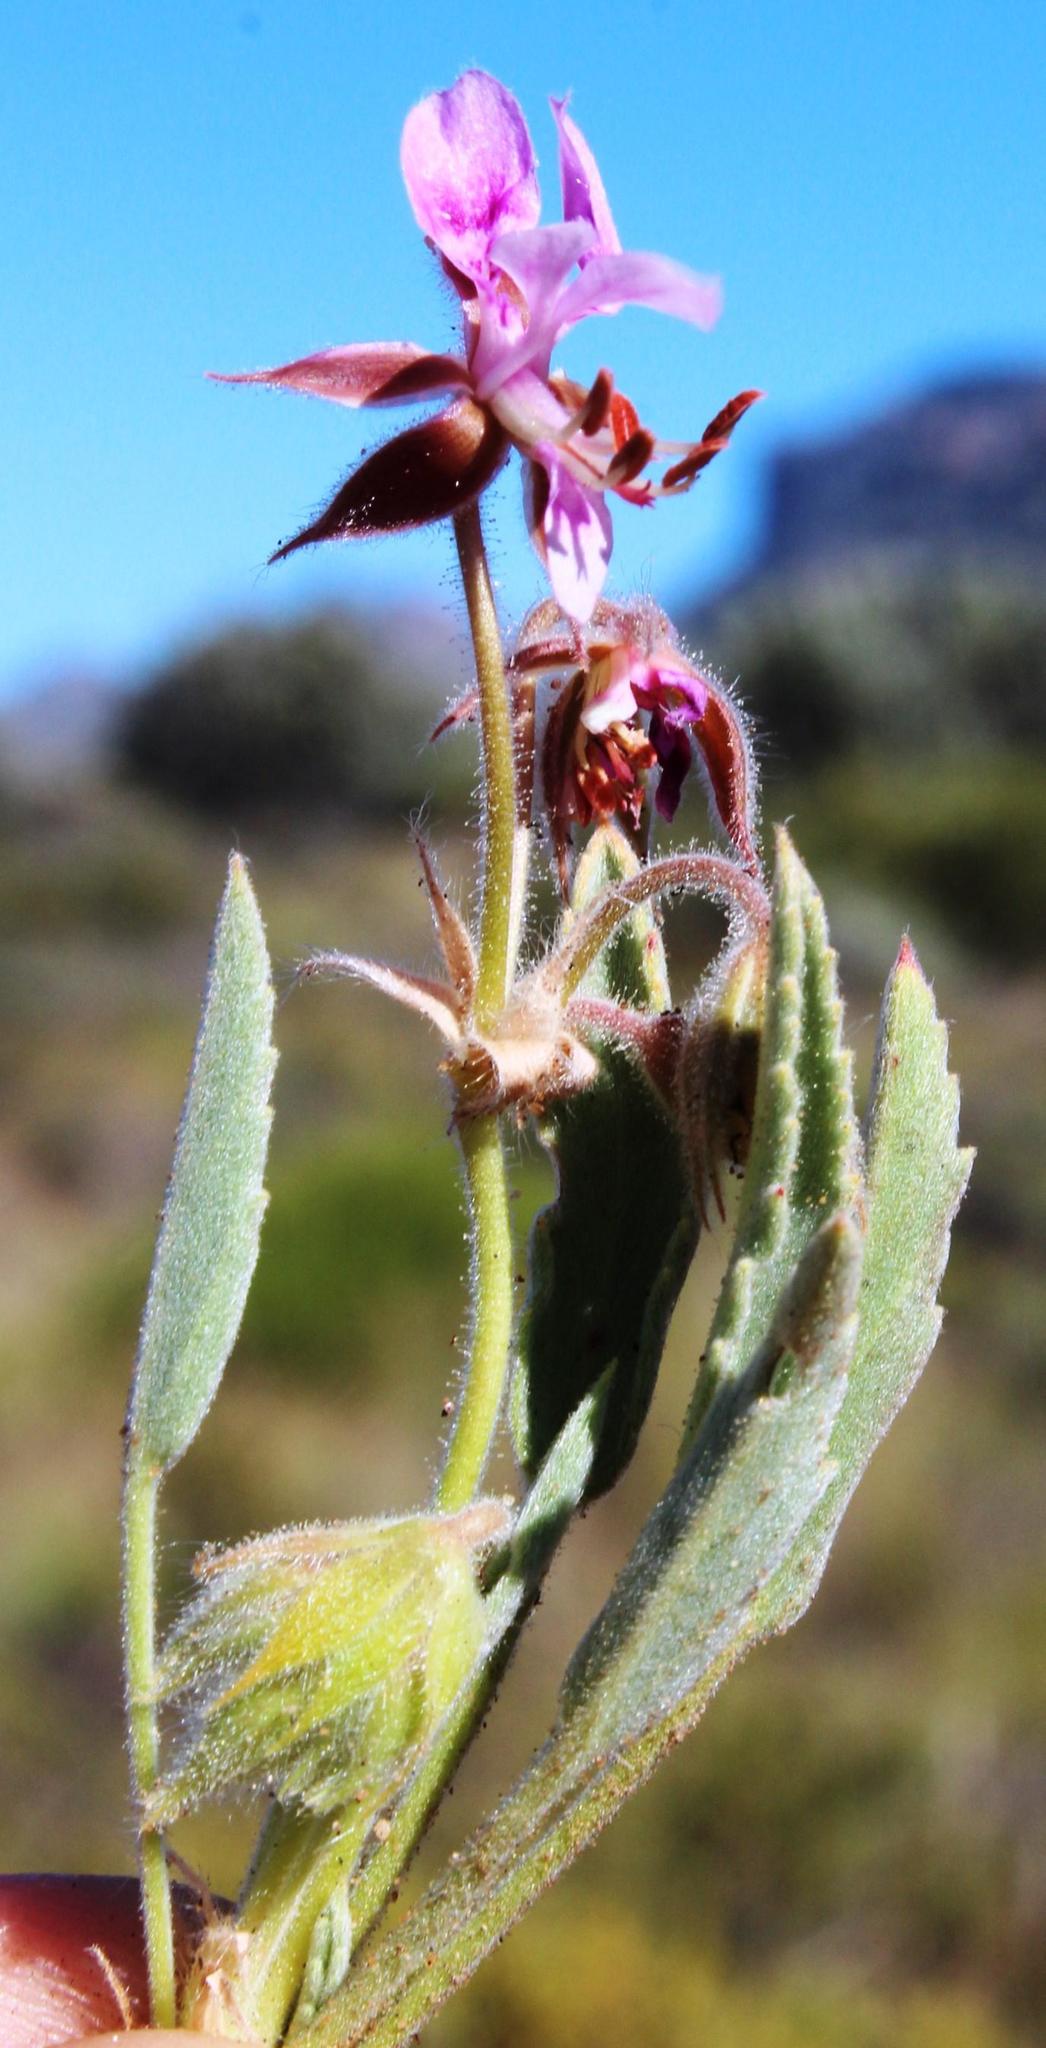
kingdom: Plantae
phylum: Tracheophyta
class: Magnoliopsida
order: Geraniales
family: Geraniaceae
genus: Pelargonium
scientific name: Pelargonium caespitosum
